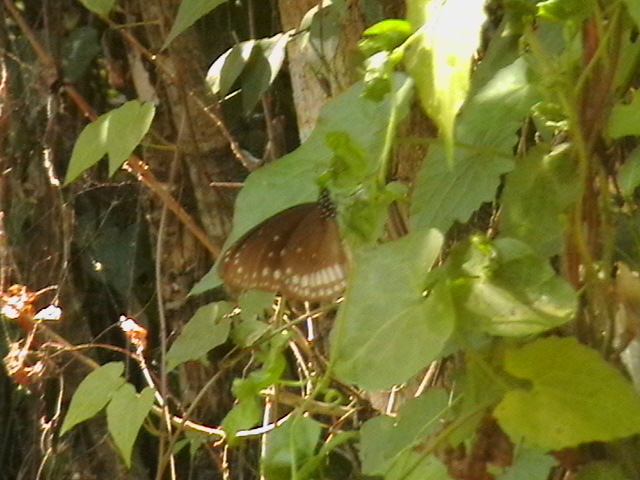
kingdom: Animalia
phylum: Arthropoda
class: Insecta
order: Lepidoptera
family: Nymphalidae
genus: Euploea
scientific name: Euploea core
